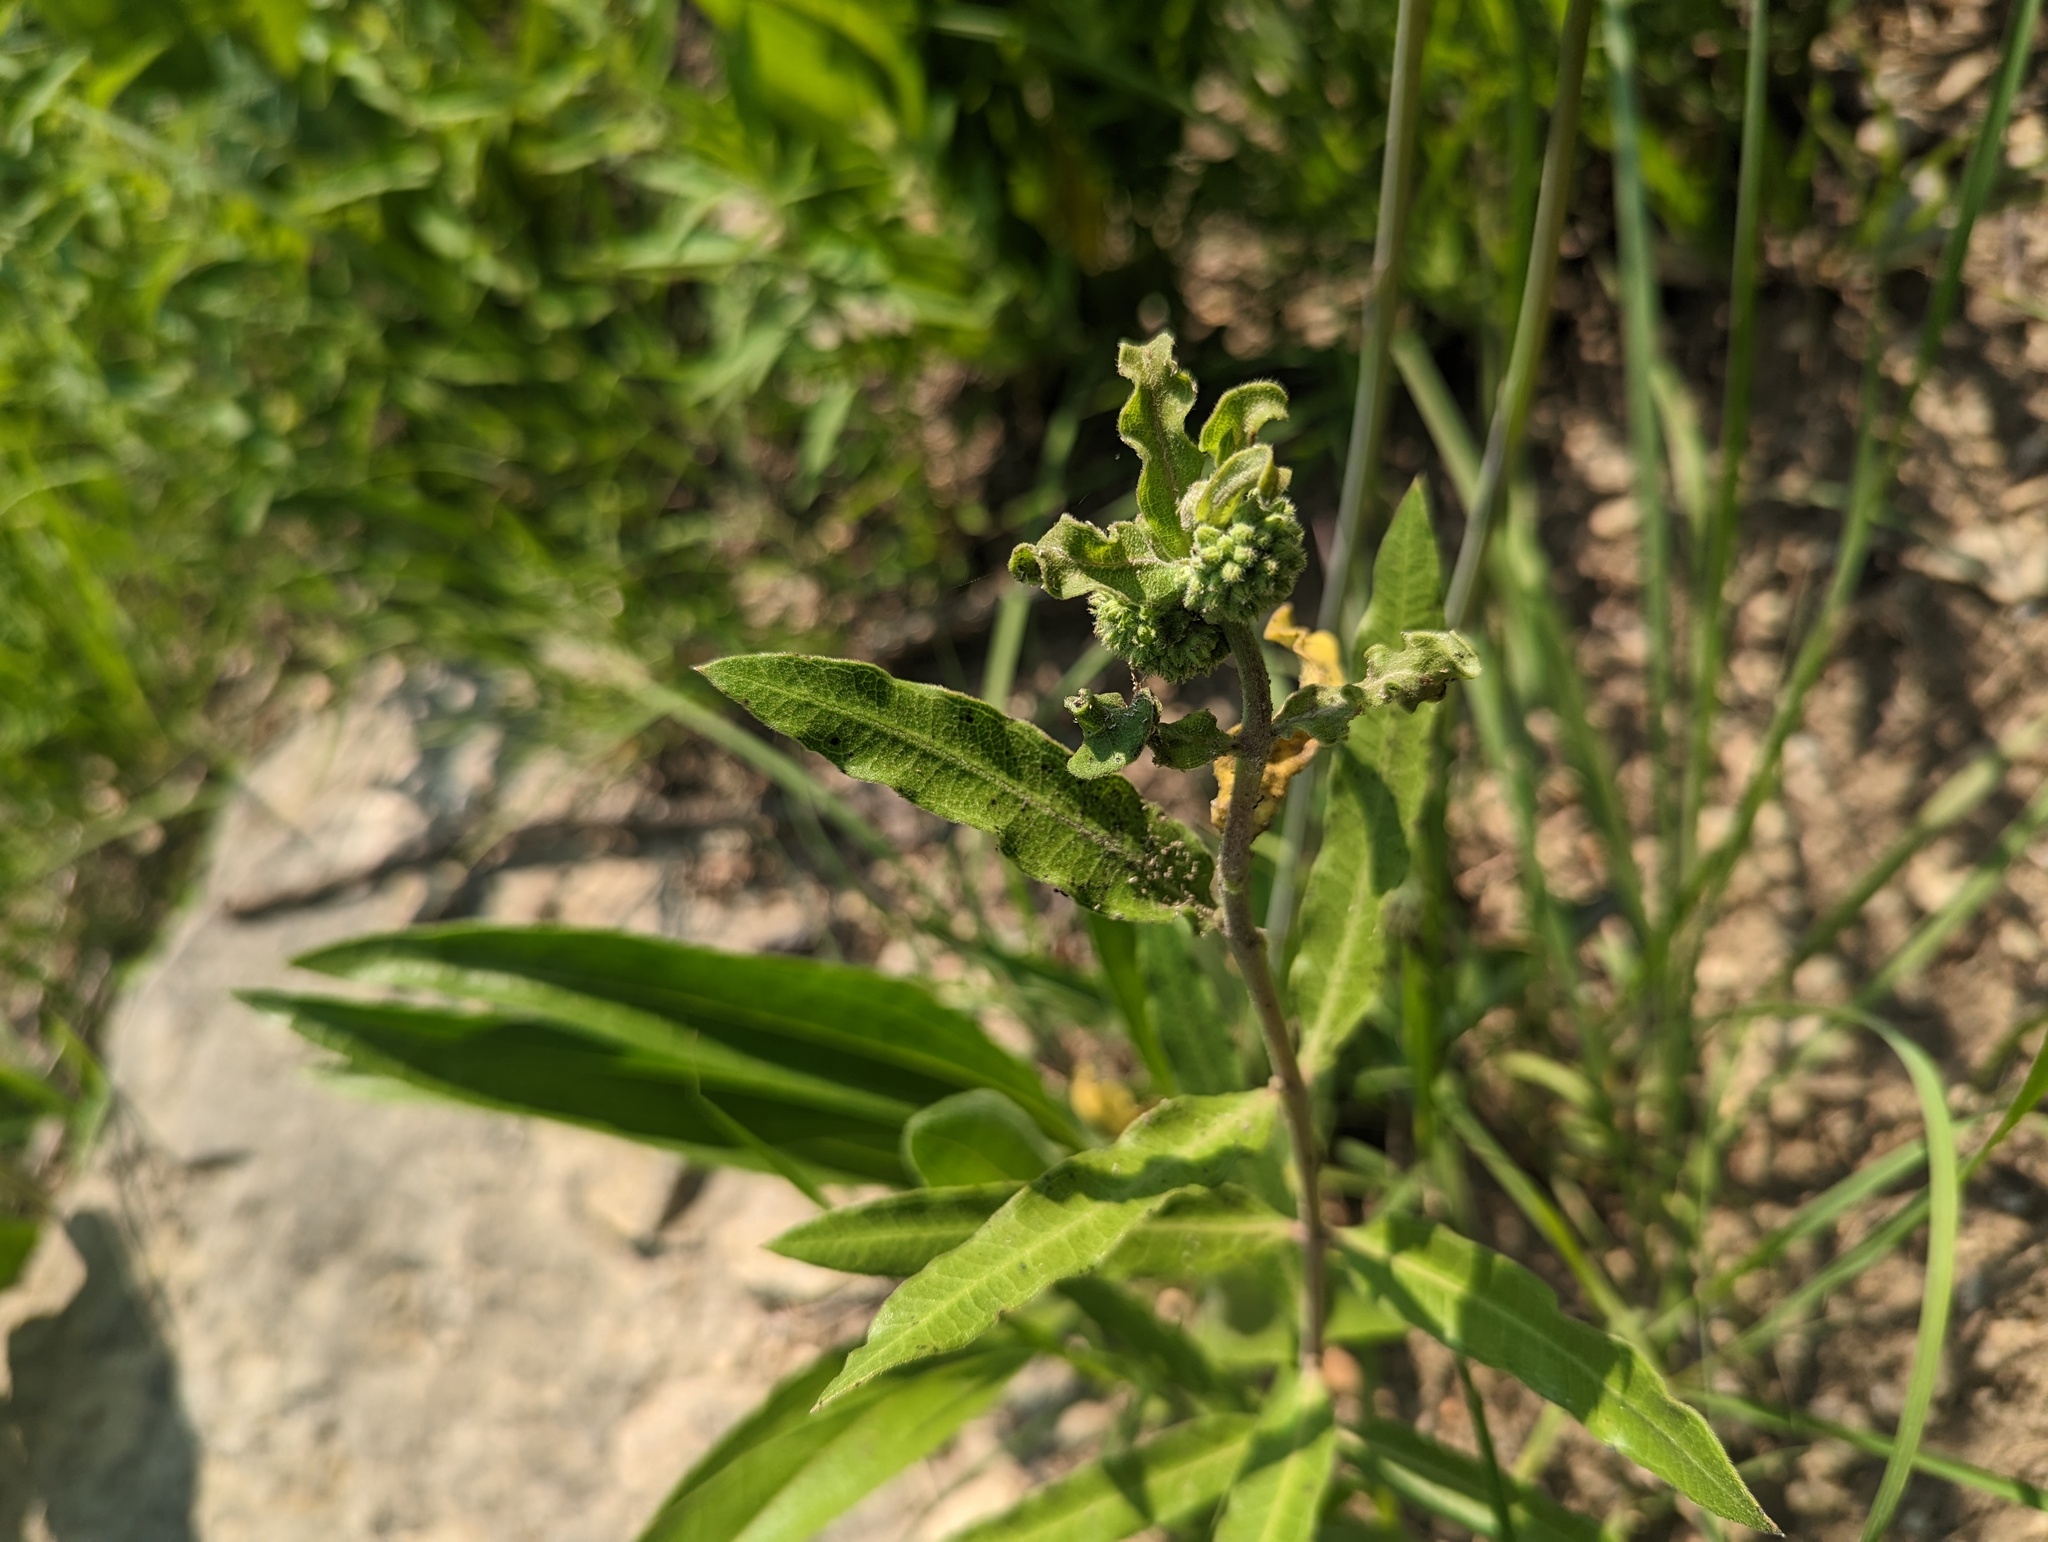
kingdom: Plantae
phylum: Tracheophyta
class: Magnoliopsida
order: Gentianales
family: Apocynaceae
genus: Asclepias
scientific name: Asclepias viridiflora
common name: Green comet milkweed
